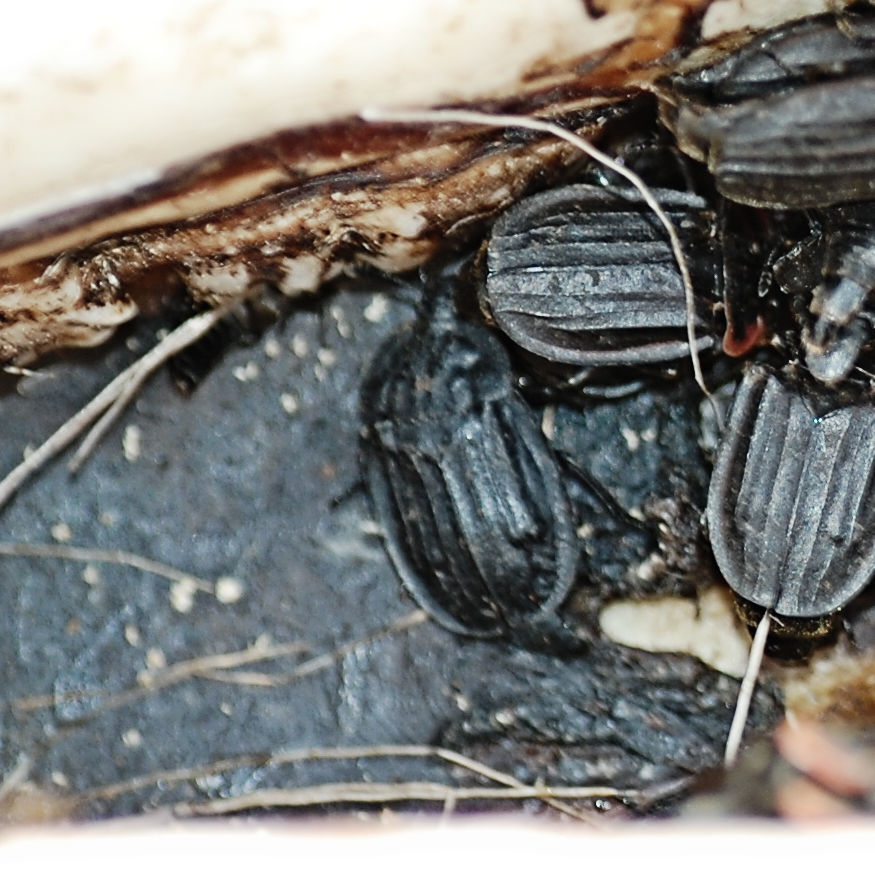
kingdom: Animalia
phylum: Arthropoda
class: Insecta
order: Coleoptera
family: Staphylinidae
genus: Oiceoptoma
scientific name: Oiceoptoma inaequale
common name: Ridged carrion beetle
